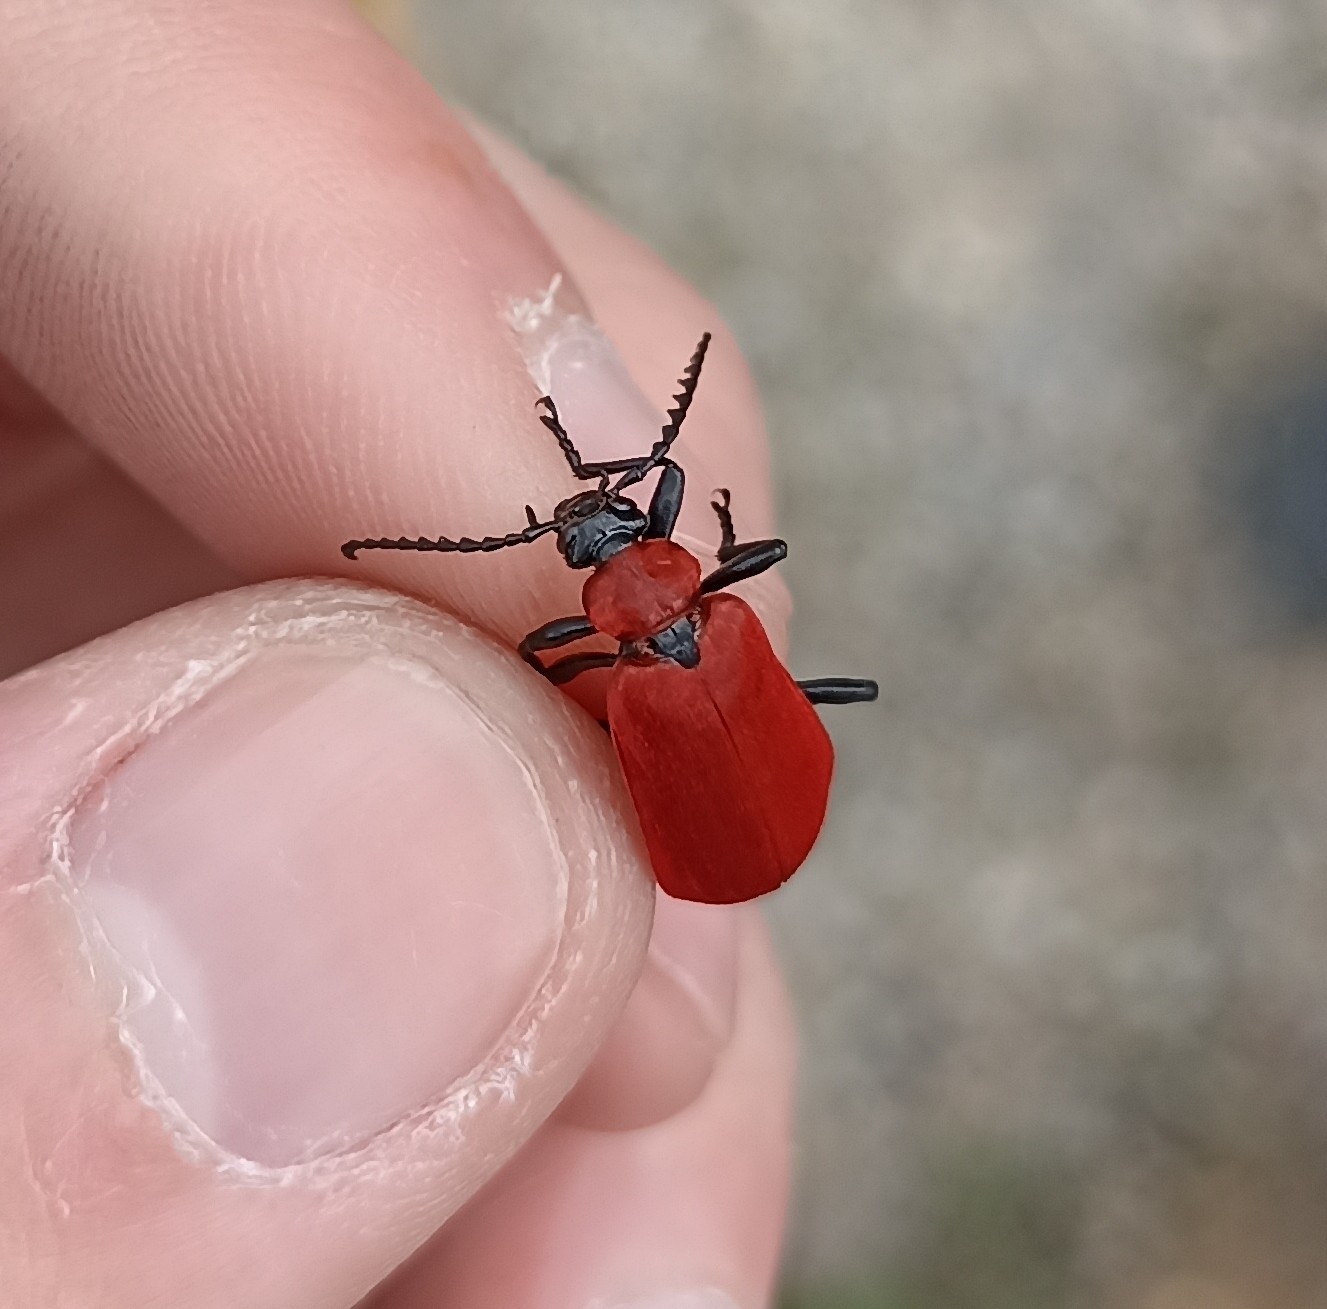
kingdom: Animalia
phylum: Arthropoda
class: Insecta
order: Coleoptera
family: Pyrochroidae
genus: Pyrochroa
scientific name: Pyrochroa coccinea
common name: Black-headed cardinal beetle
